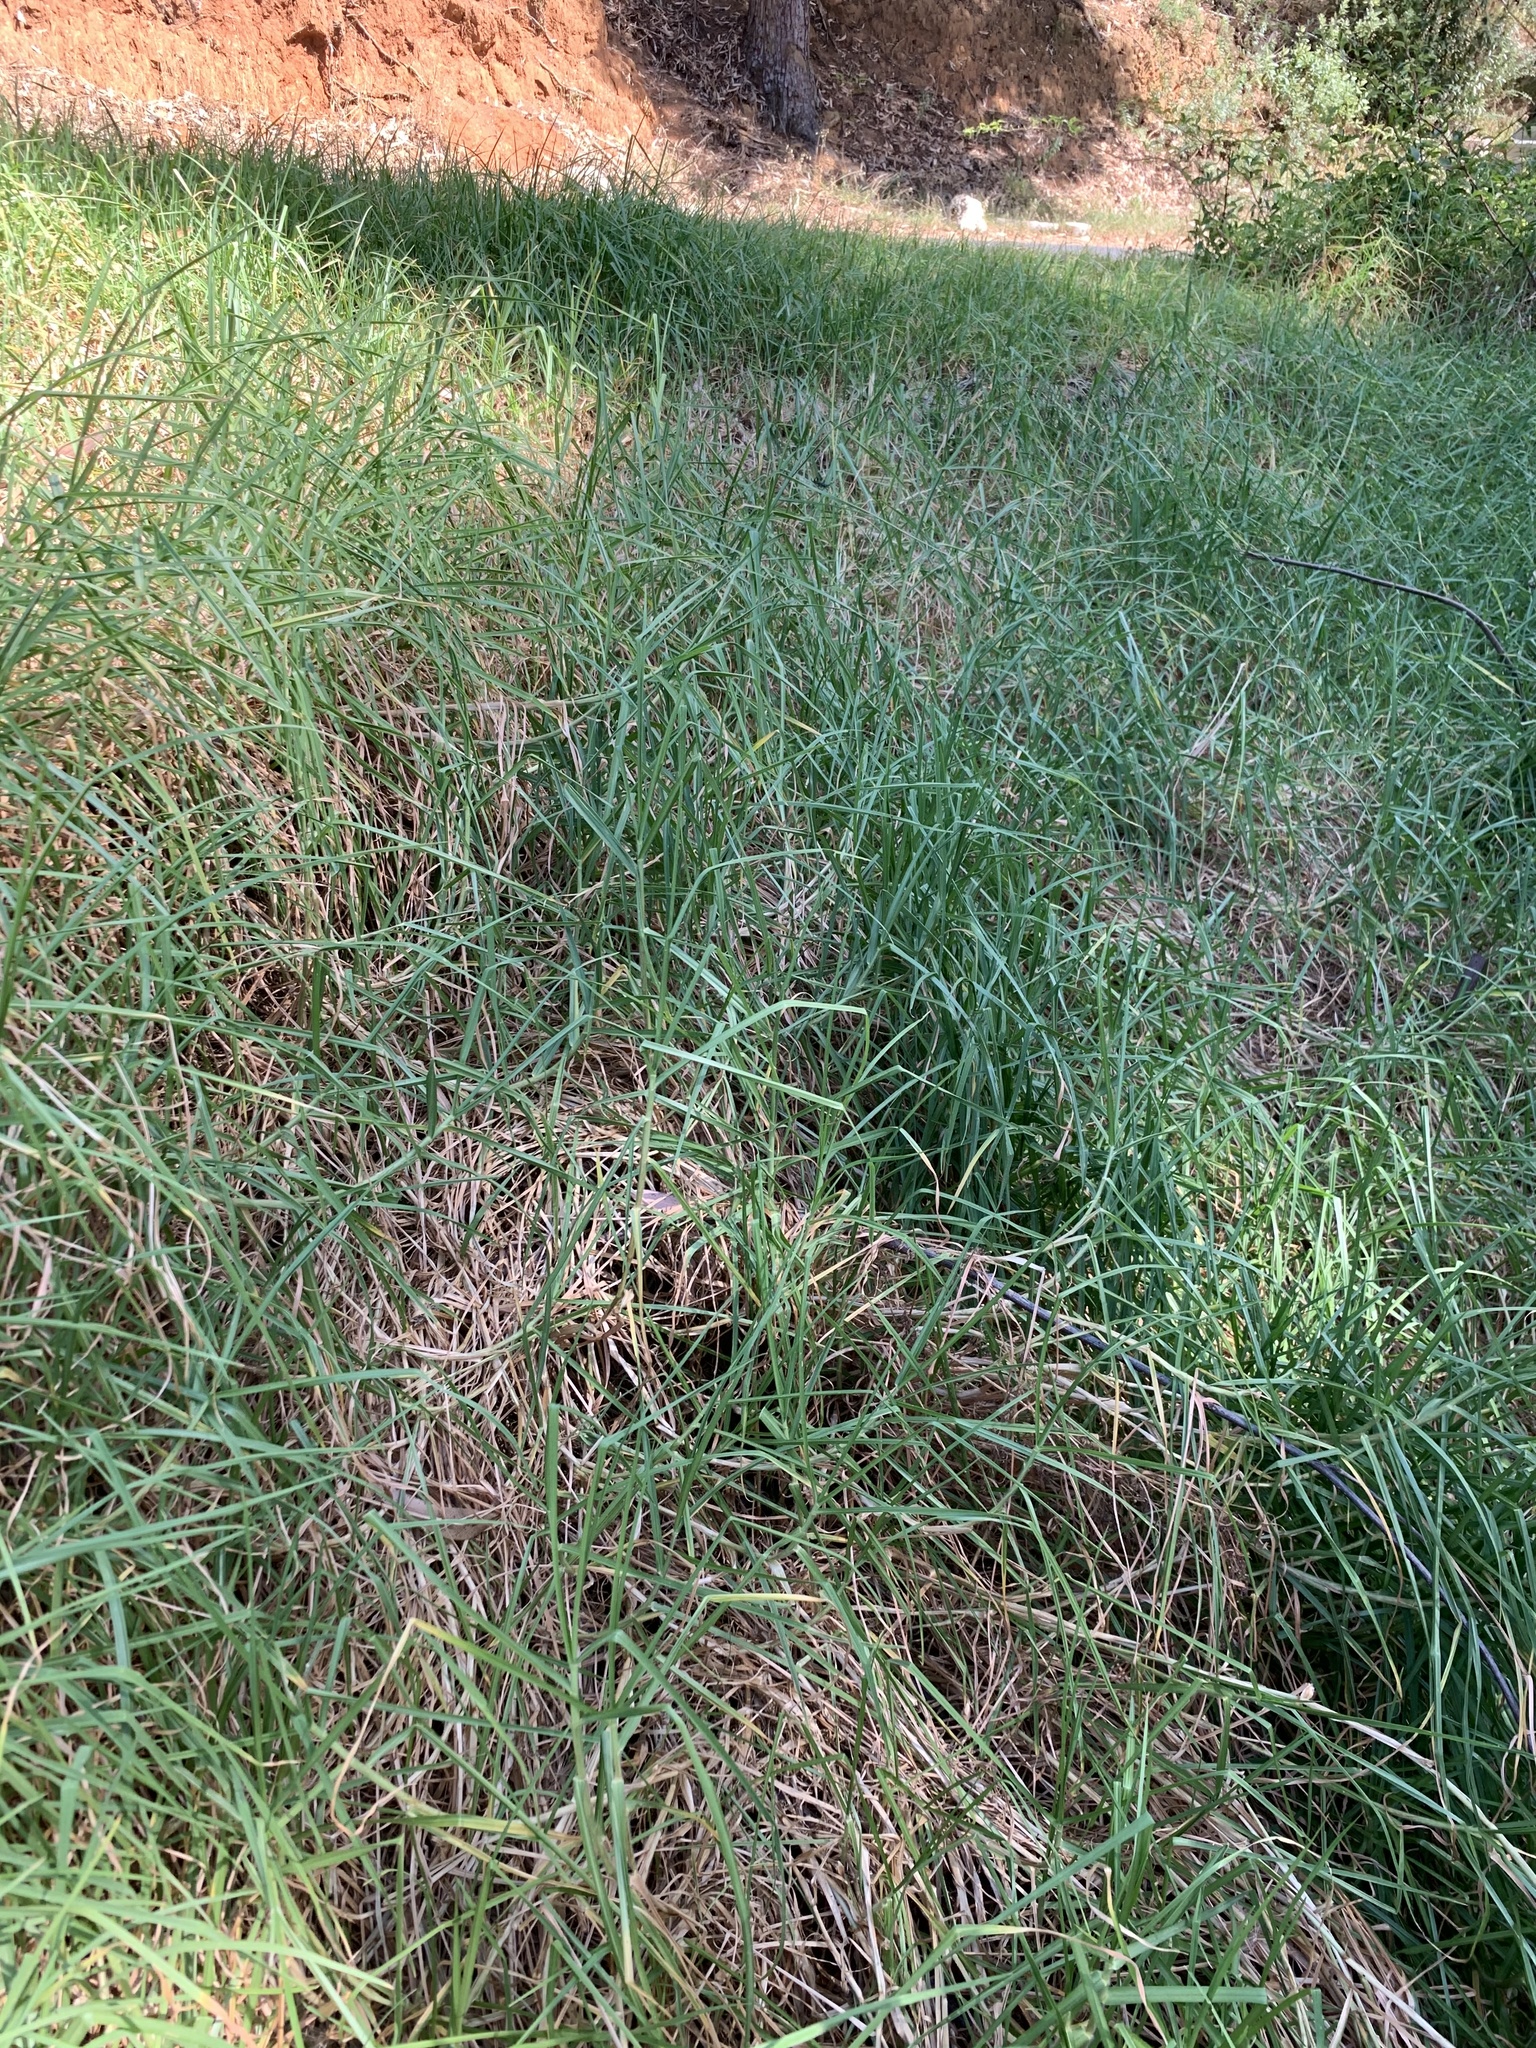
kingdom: Plantae
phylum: Tracheophyta
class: Liliopsida
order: Poales
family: Poaceae
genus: Cenchrus
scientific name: Cenchrus clandestinus
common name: Kikuyugrass
